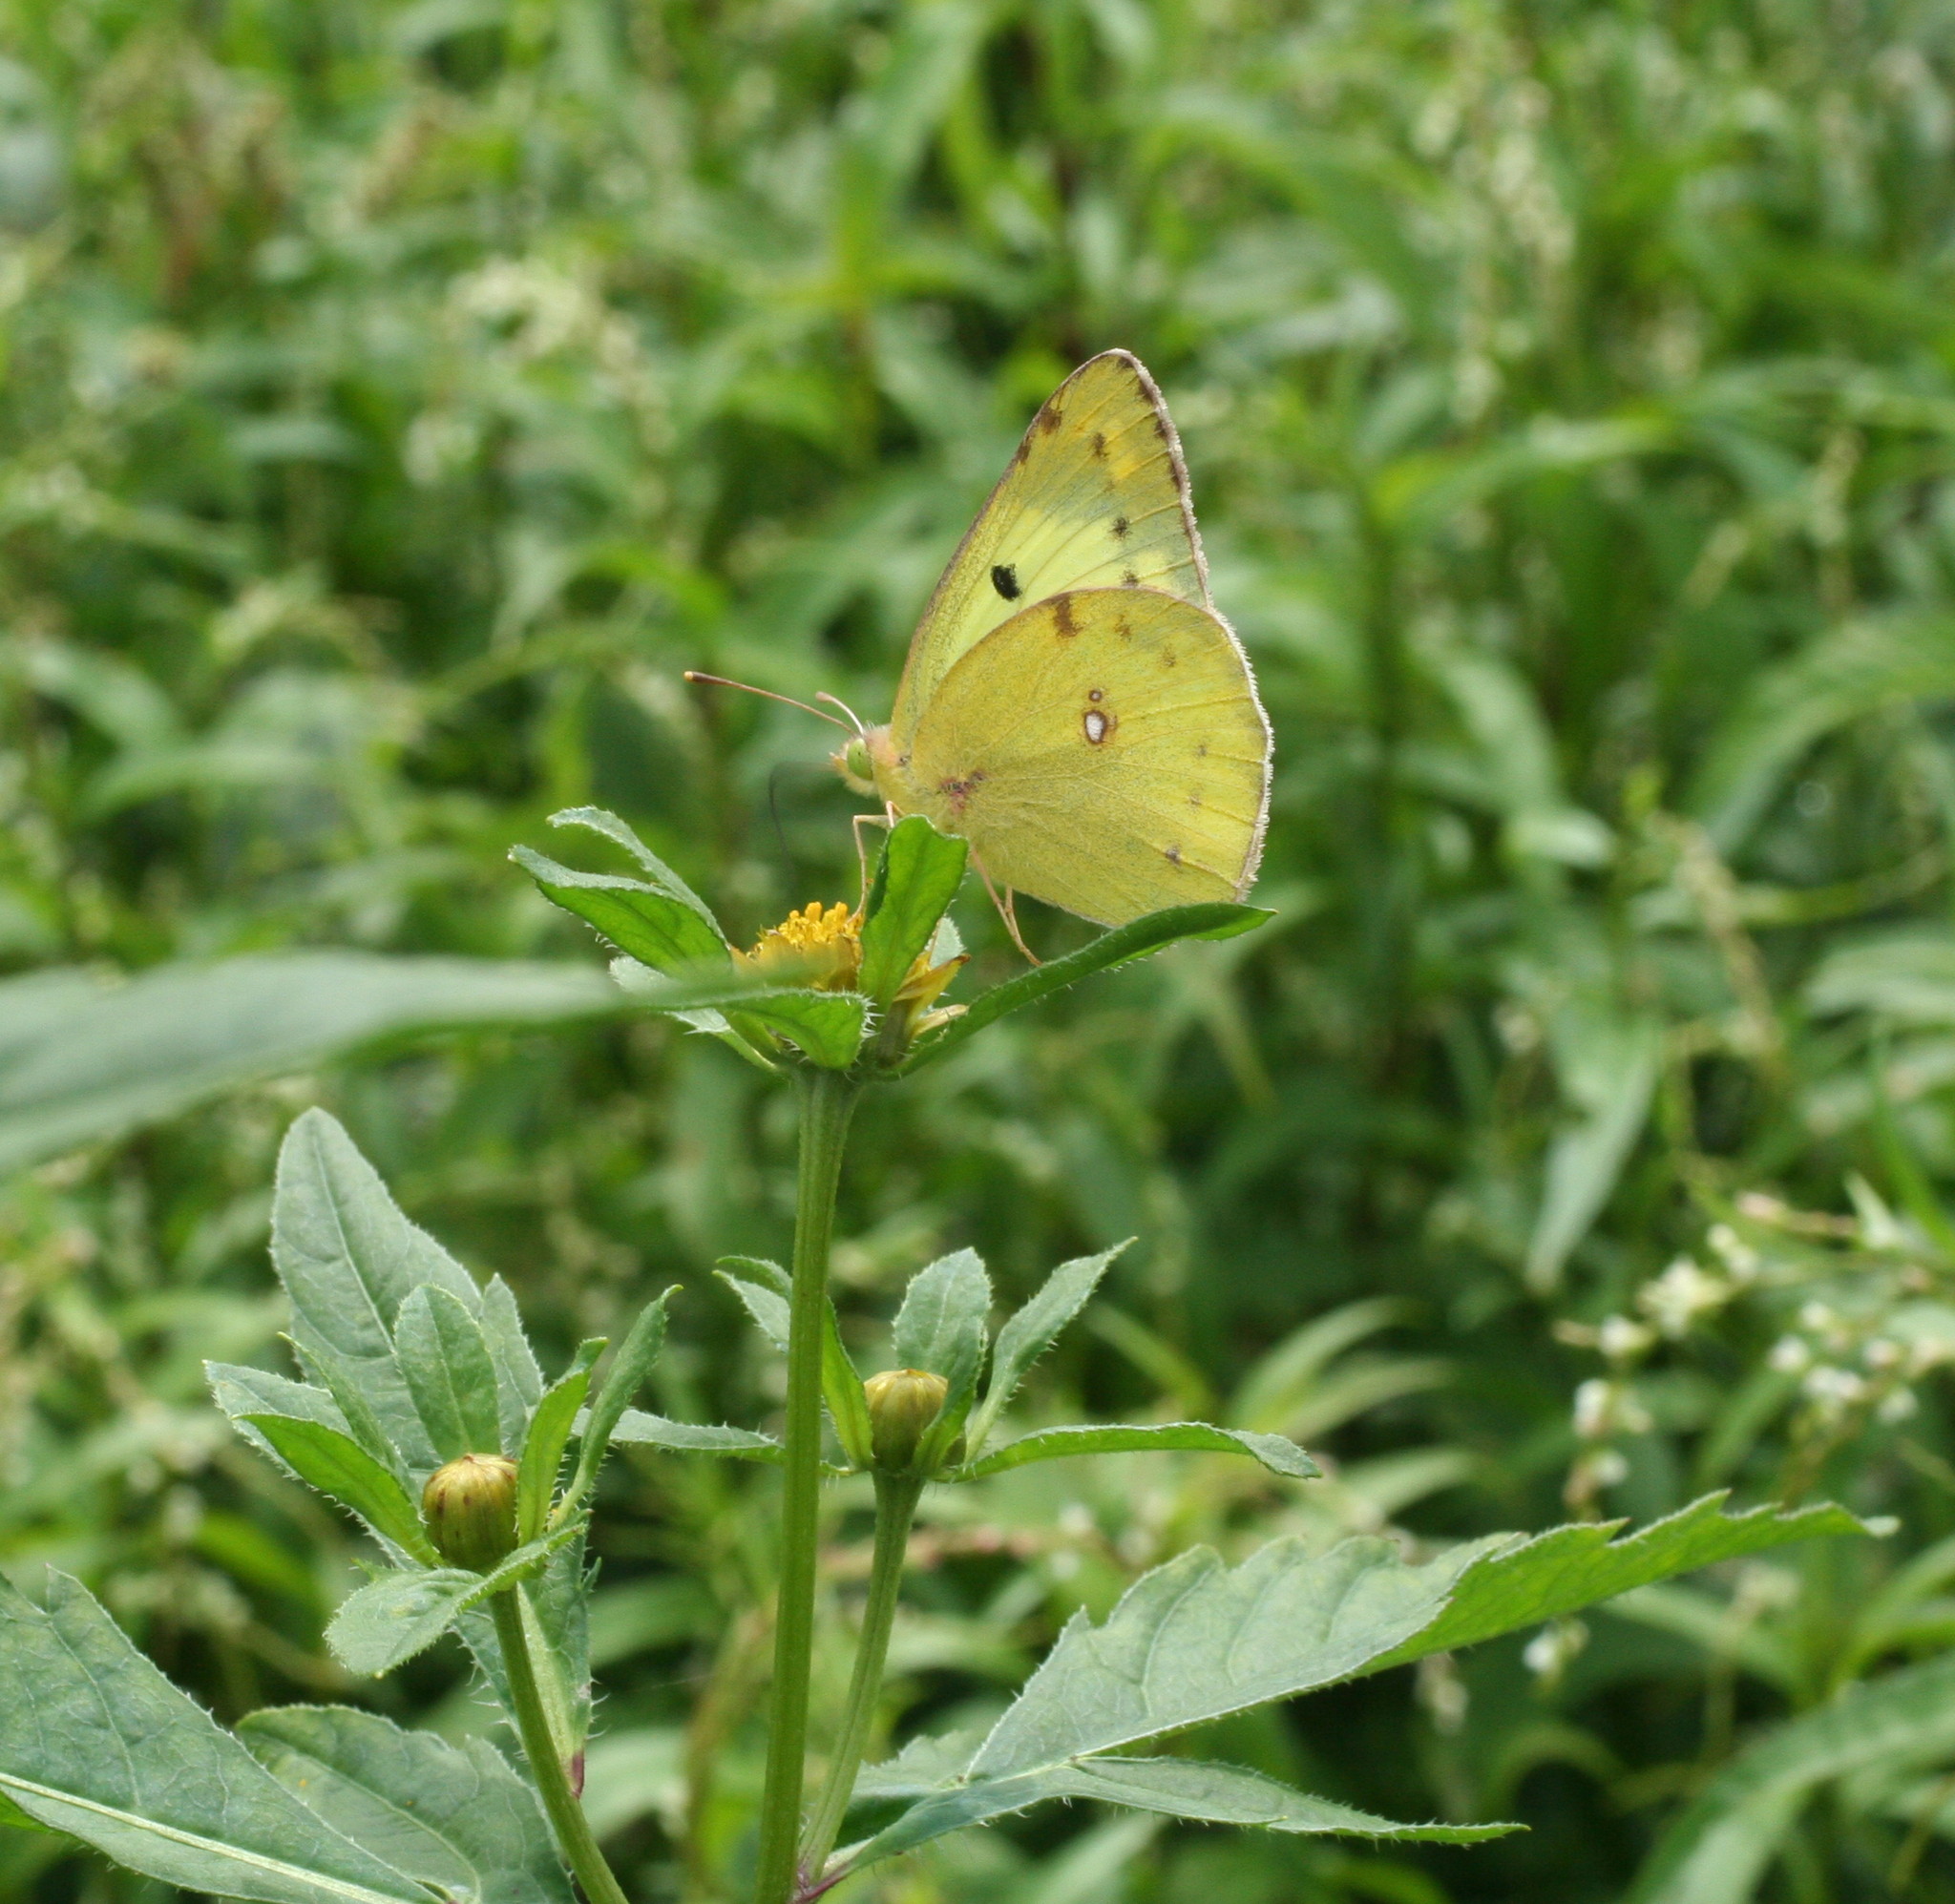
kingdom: Plantae
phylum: Tracheophyta
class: Magnoliopsida
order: Asterales
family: Asteraceae
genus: Bidens
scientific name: Bidens tripartita
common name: Trifid bur-marigold
